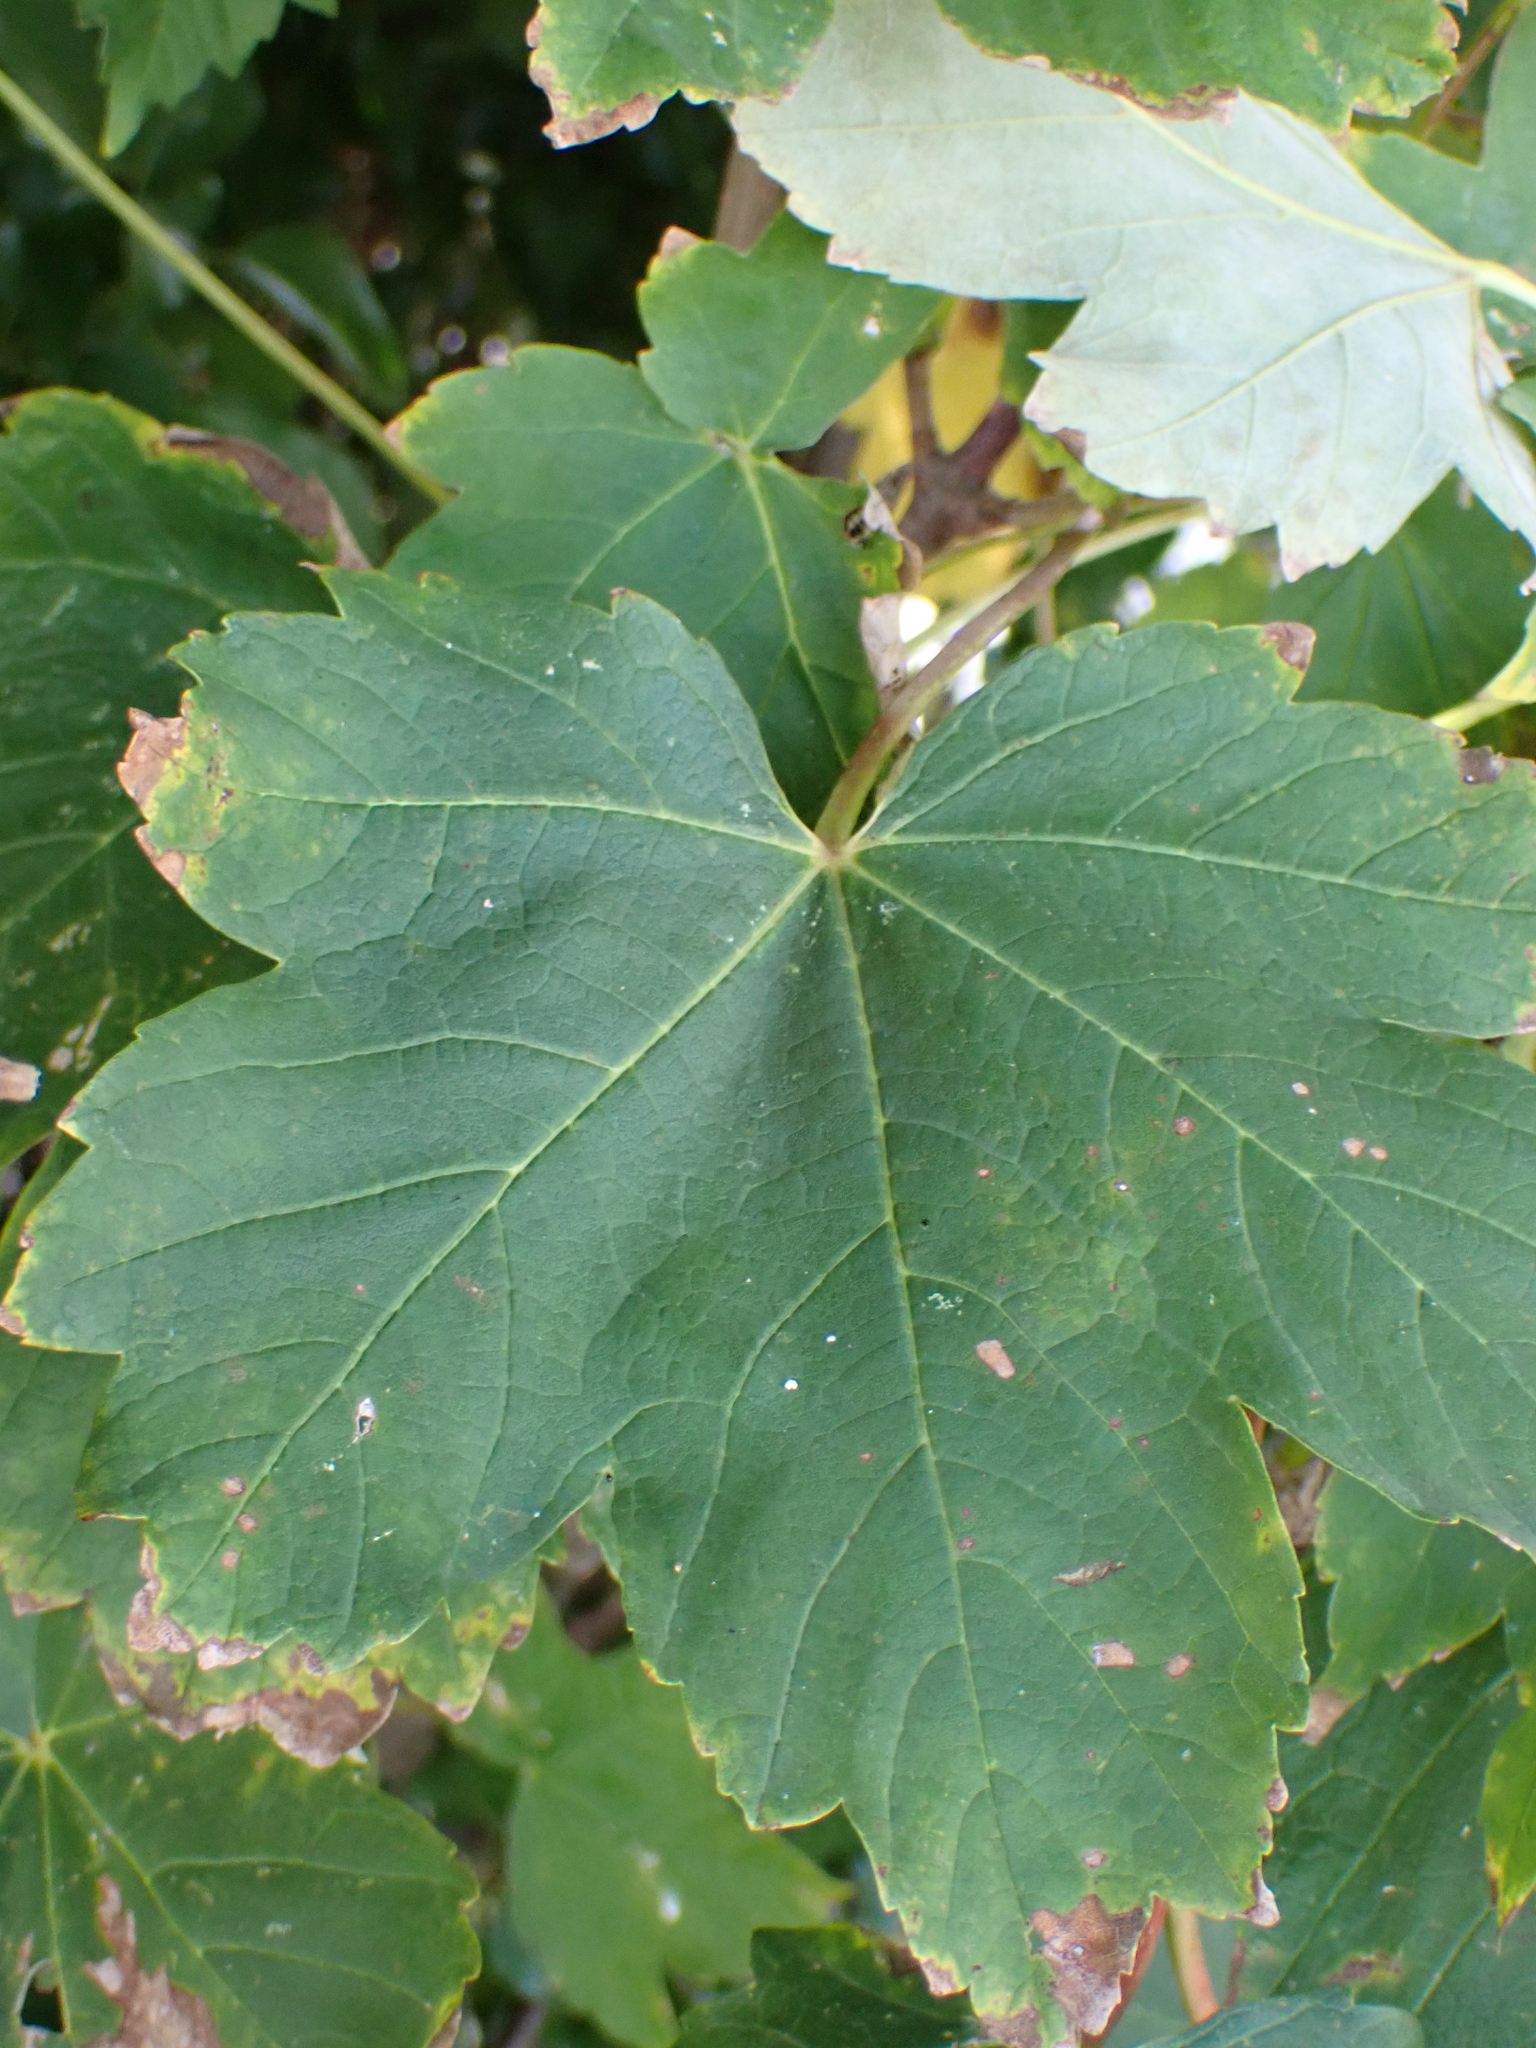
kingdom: Plantae
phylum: Tracheophyta
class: Magnoliopsida
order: Sapindales
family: Sapindaceae
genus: Acer
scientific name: Acer pseudoplatanus
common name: Sycamore
